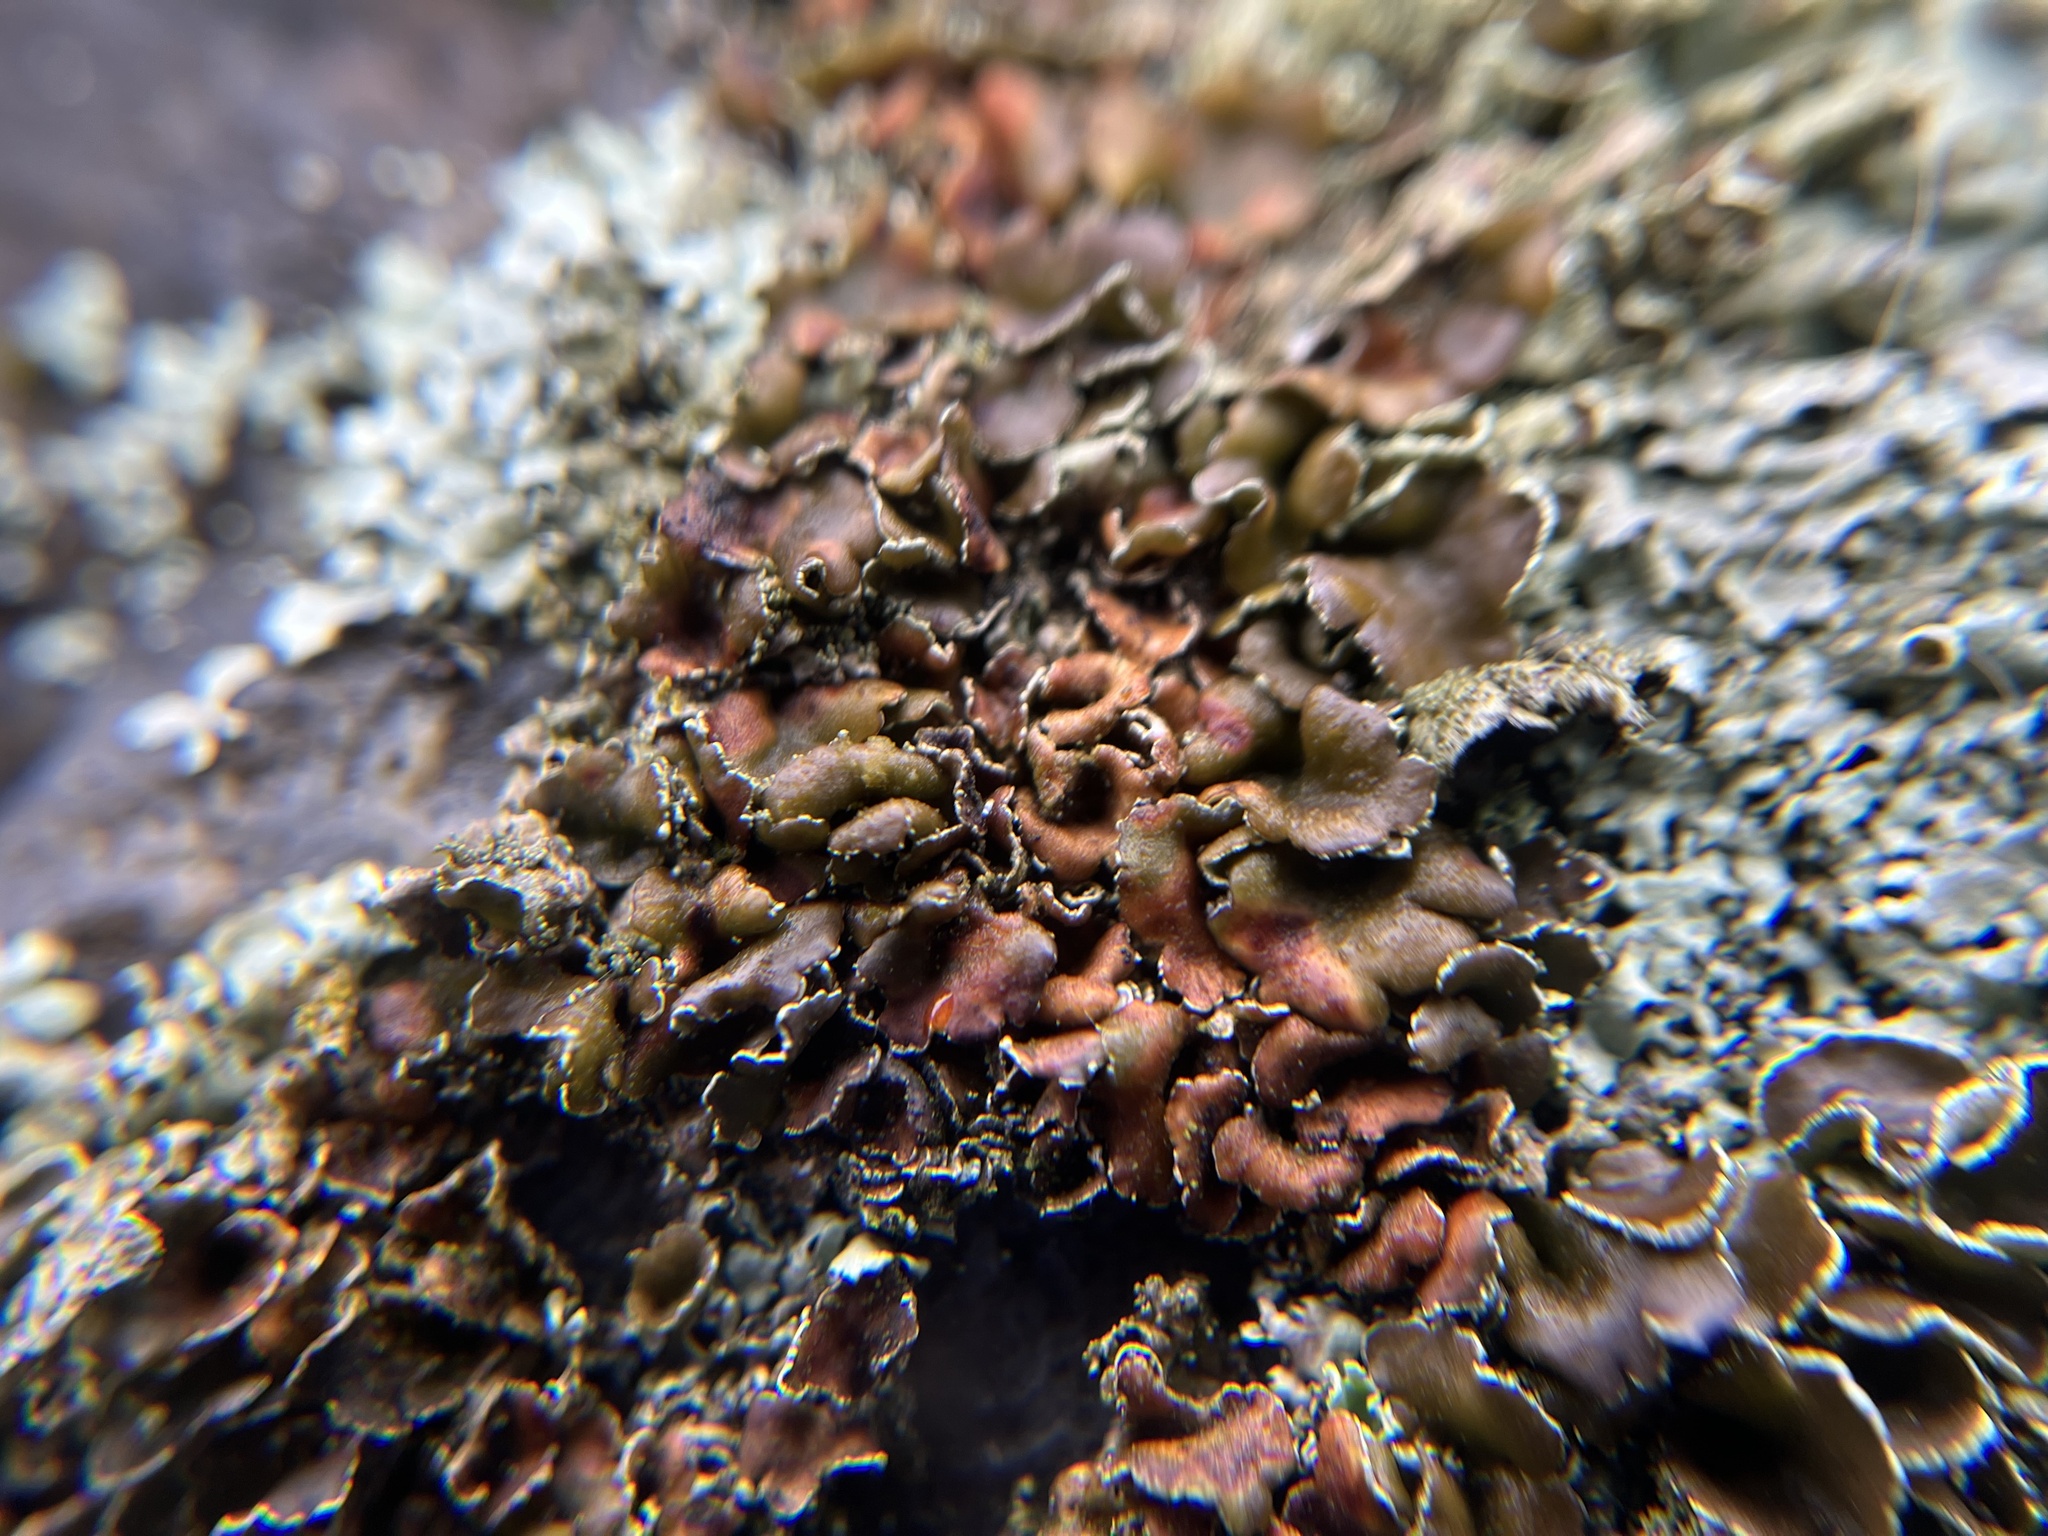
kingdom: Fungi
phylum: Ascomycota
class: Lecanoromycetes
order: Lecanorales
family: Parmeliaceae
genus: Xanthoparmelia
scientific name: Xanthoparmelia conspersa
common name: Peppered rock shield
